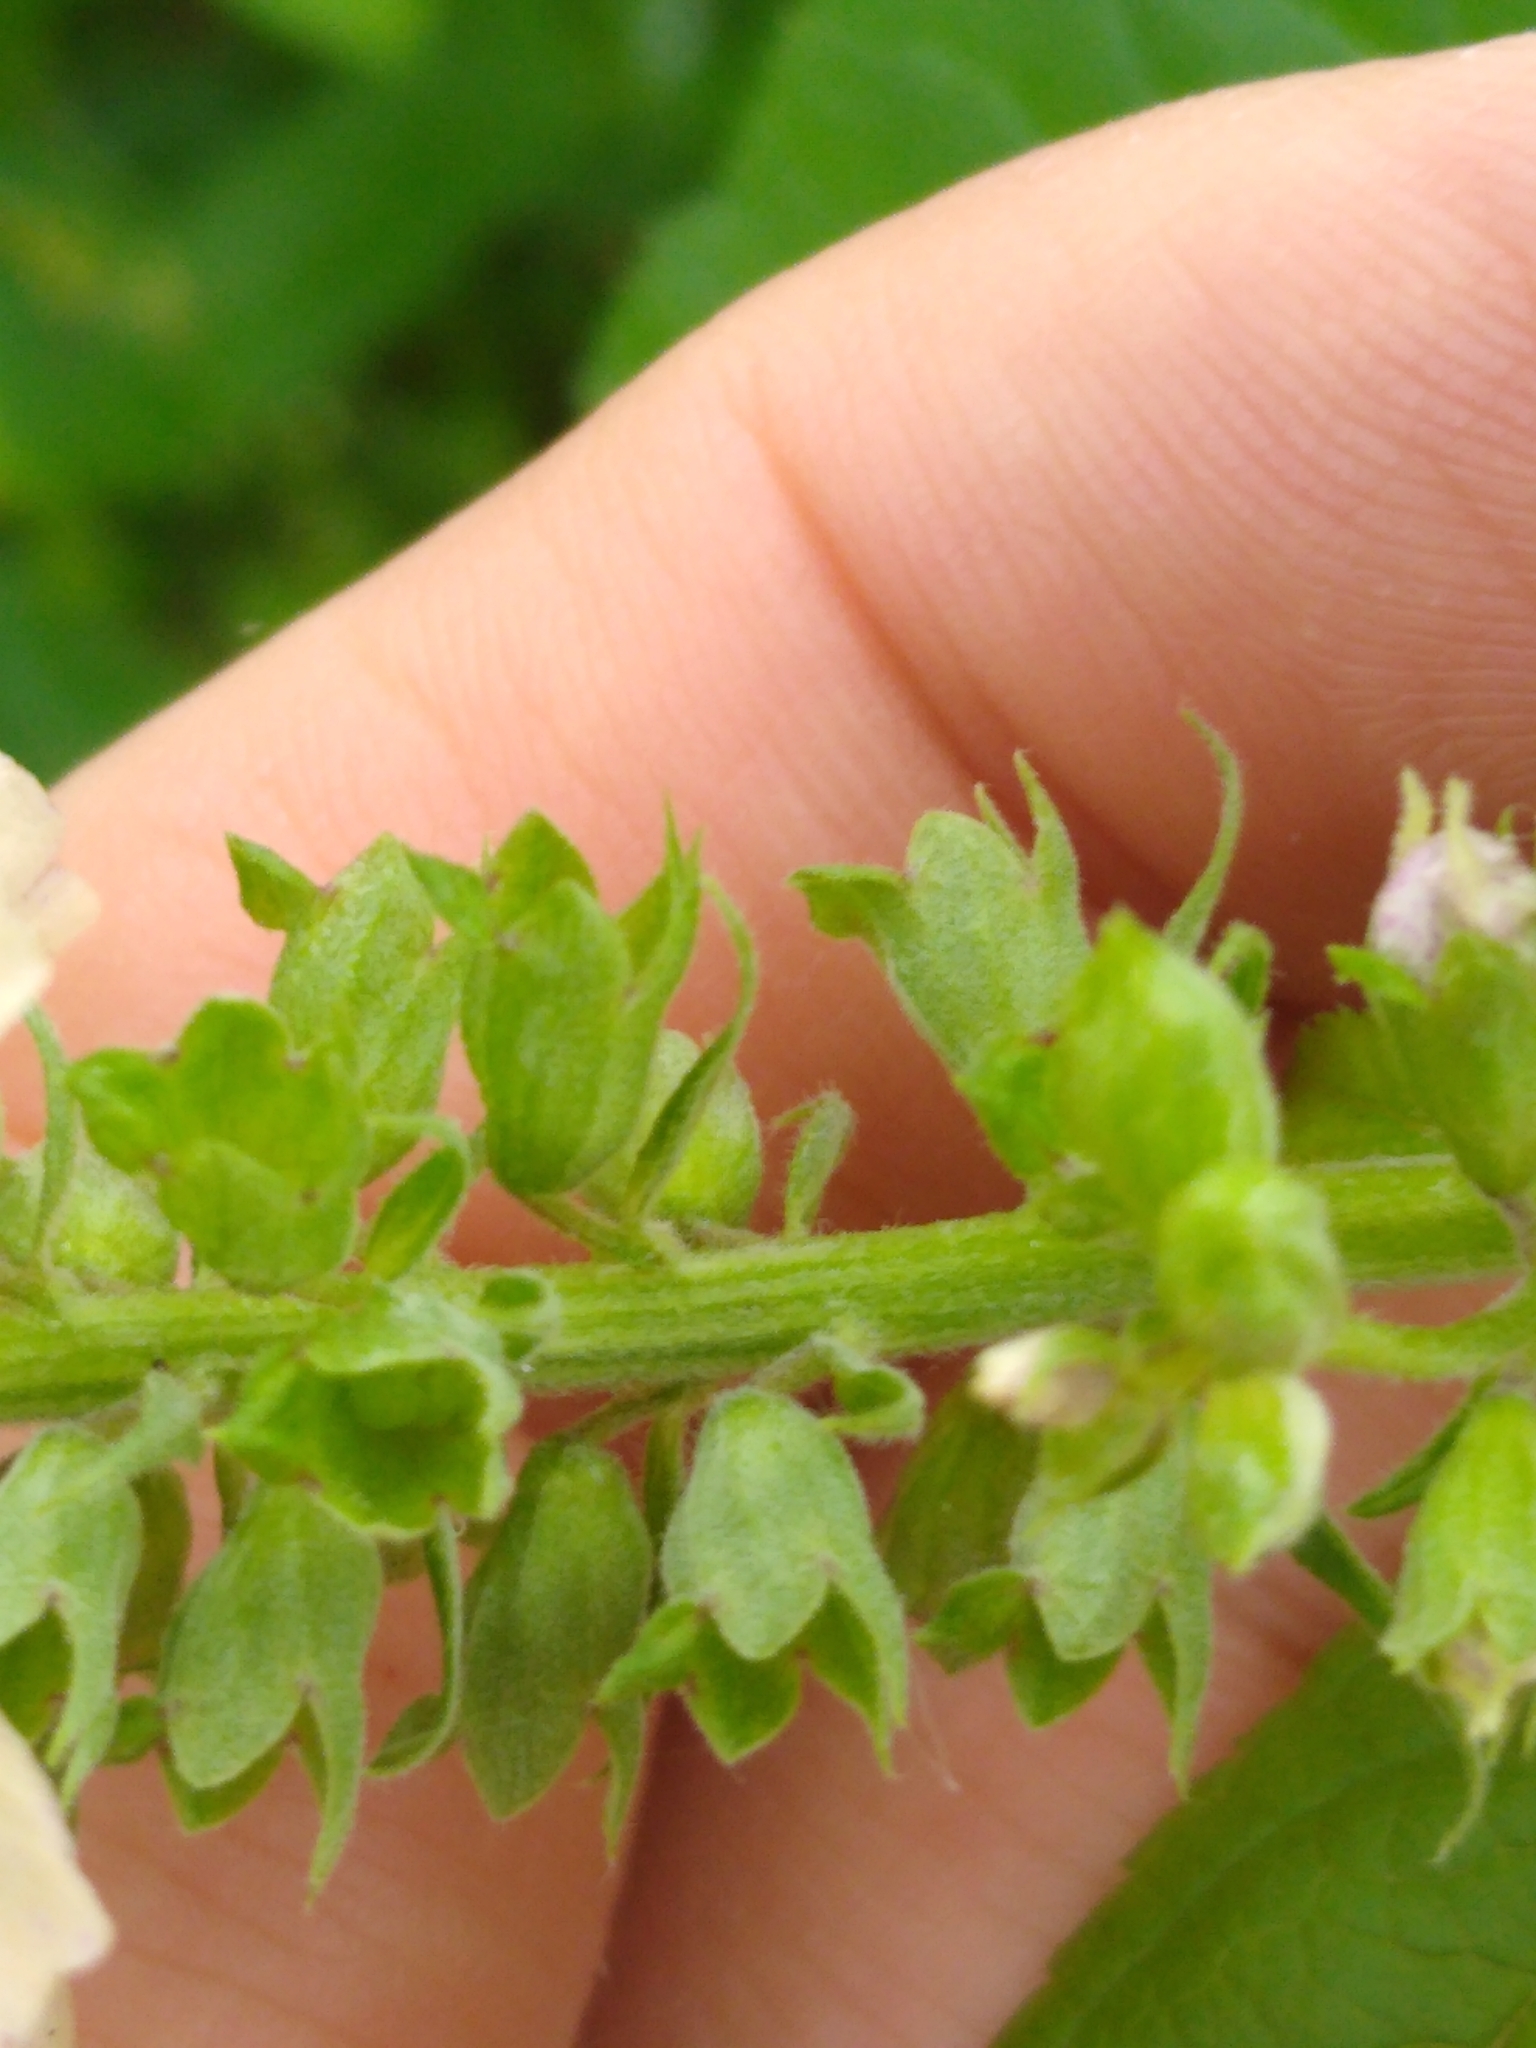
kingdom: Plantae
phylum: Tracheophyta
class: Magnoliopsida
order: Lamiales
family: Lamiaceae
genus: Teucrium
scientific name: Teucrium canadense
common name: American germander
